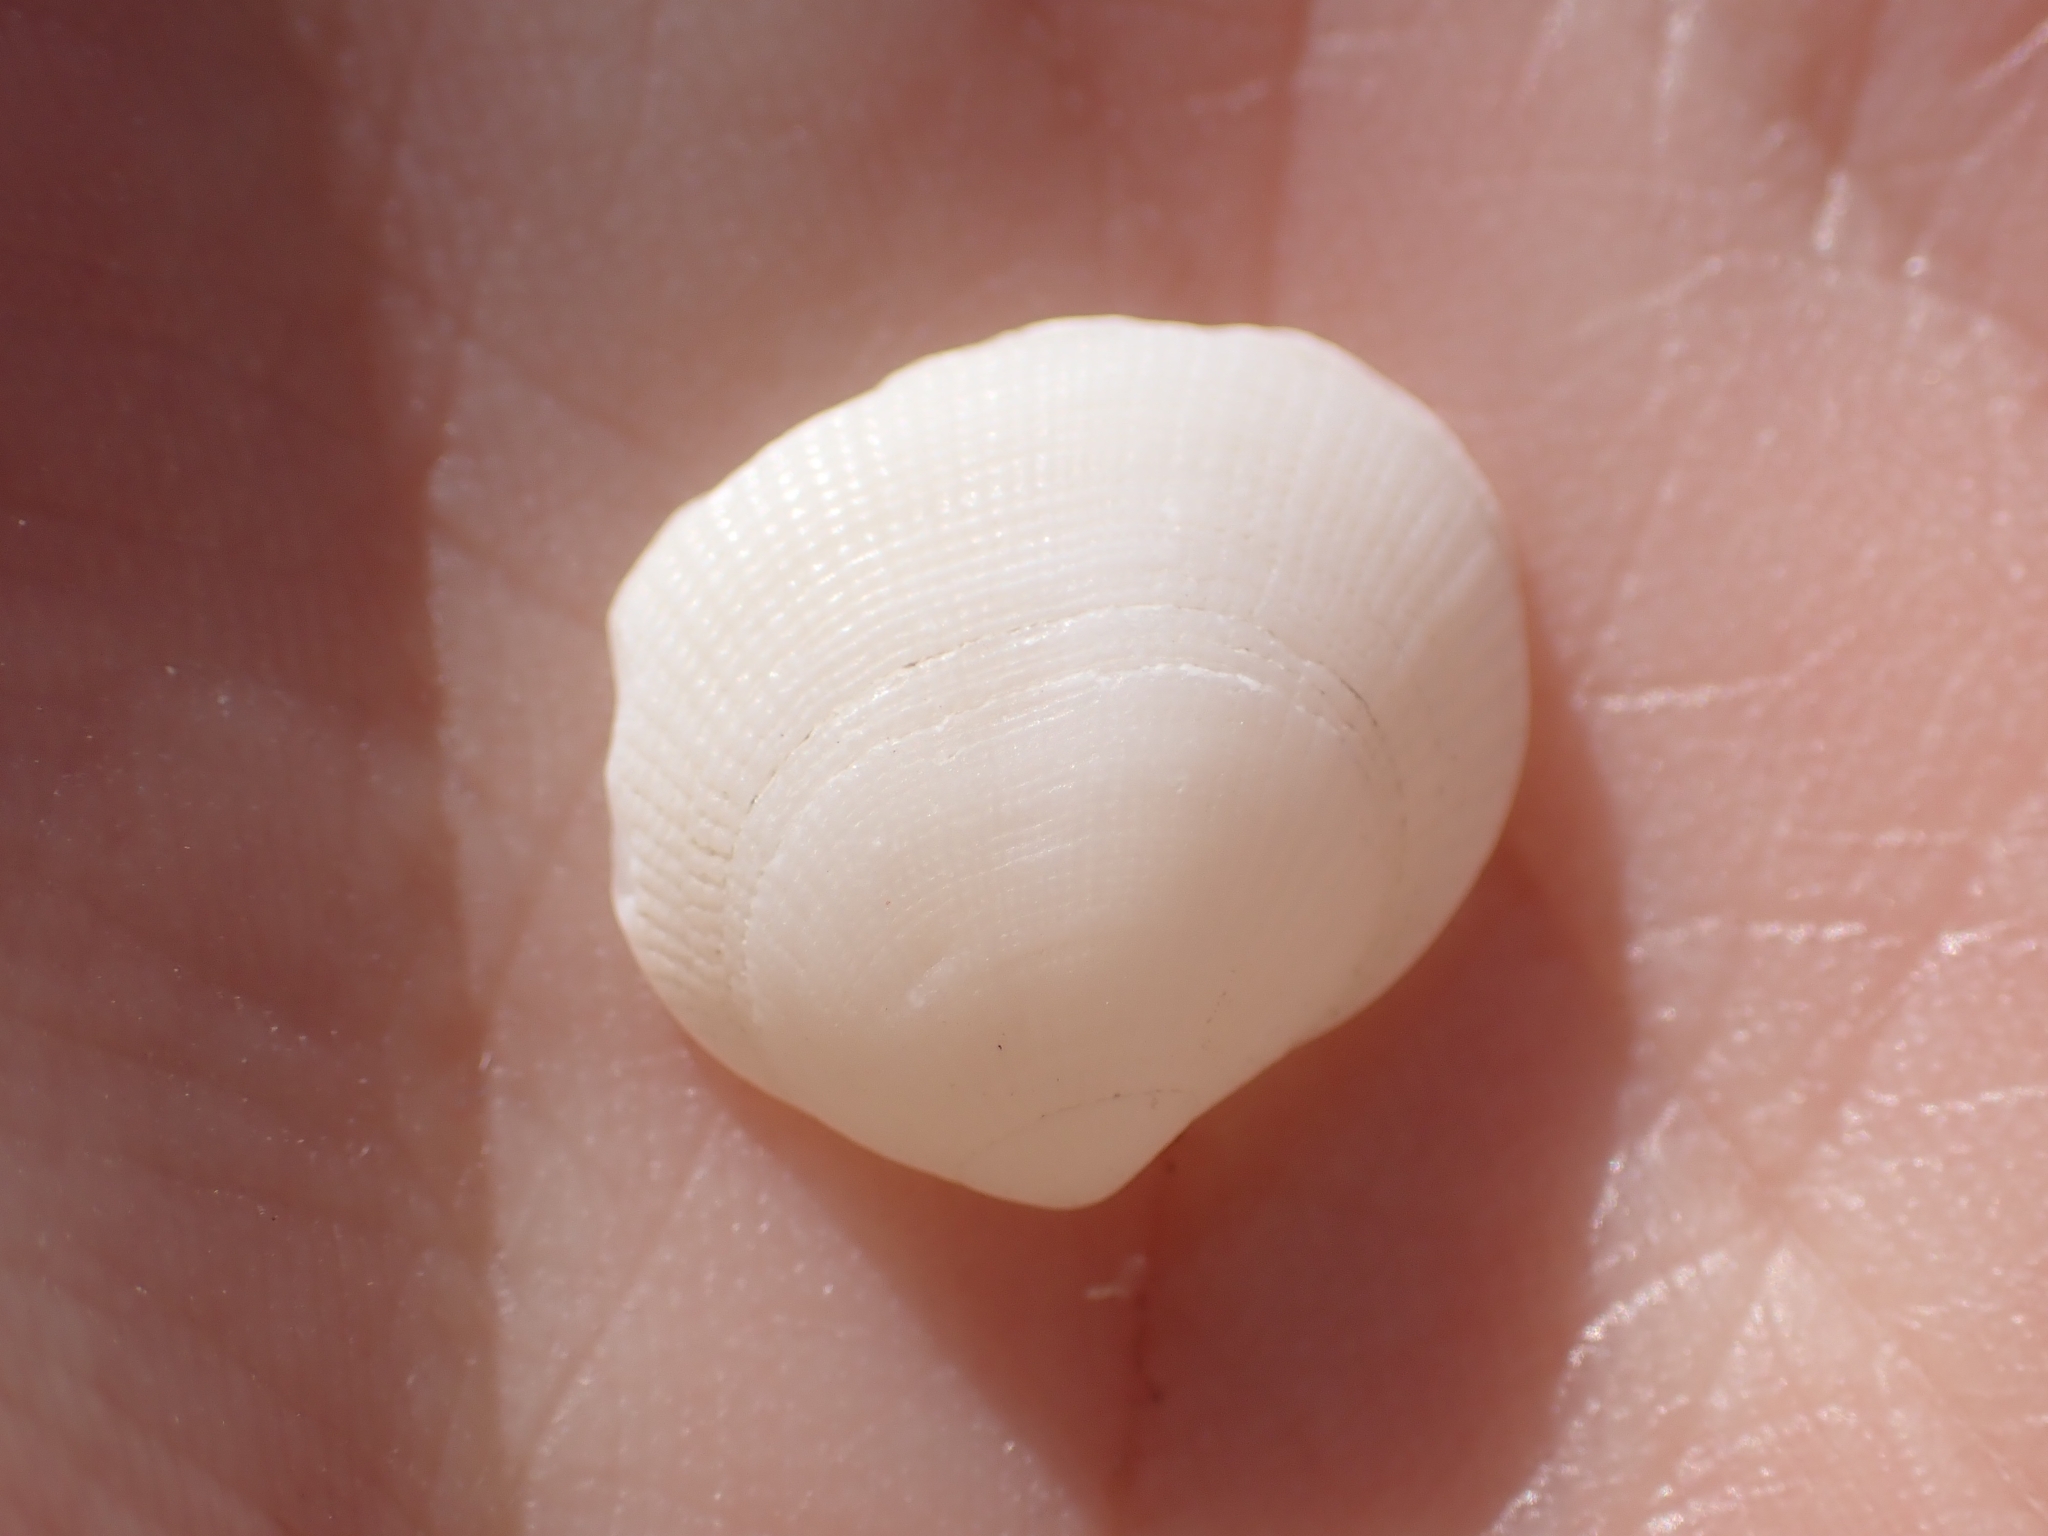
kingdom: Animalia
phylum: Mollusca
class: Bivalvia
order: Lucinida
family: Lucinidae
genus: Ctena
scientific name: Ctena decussata
